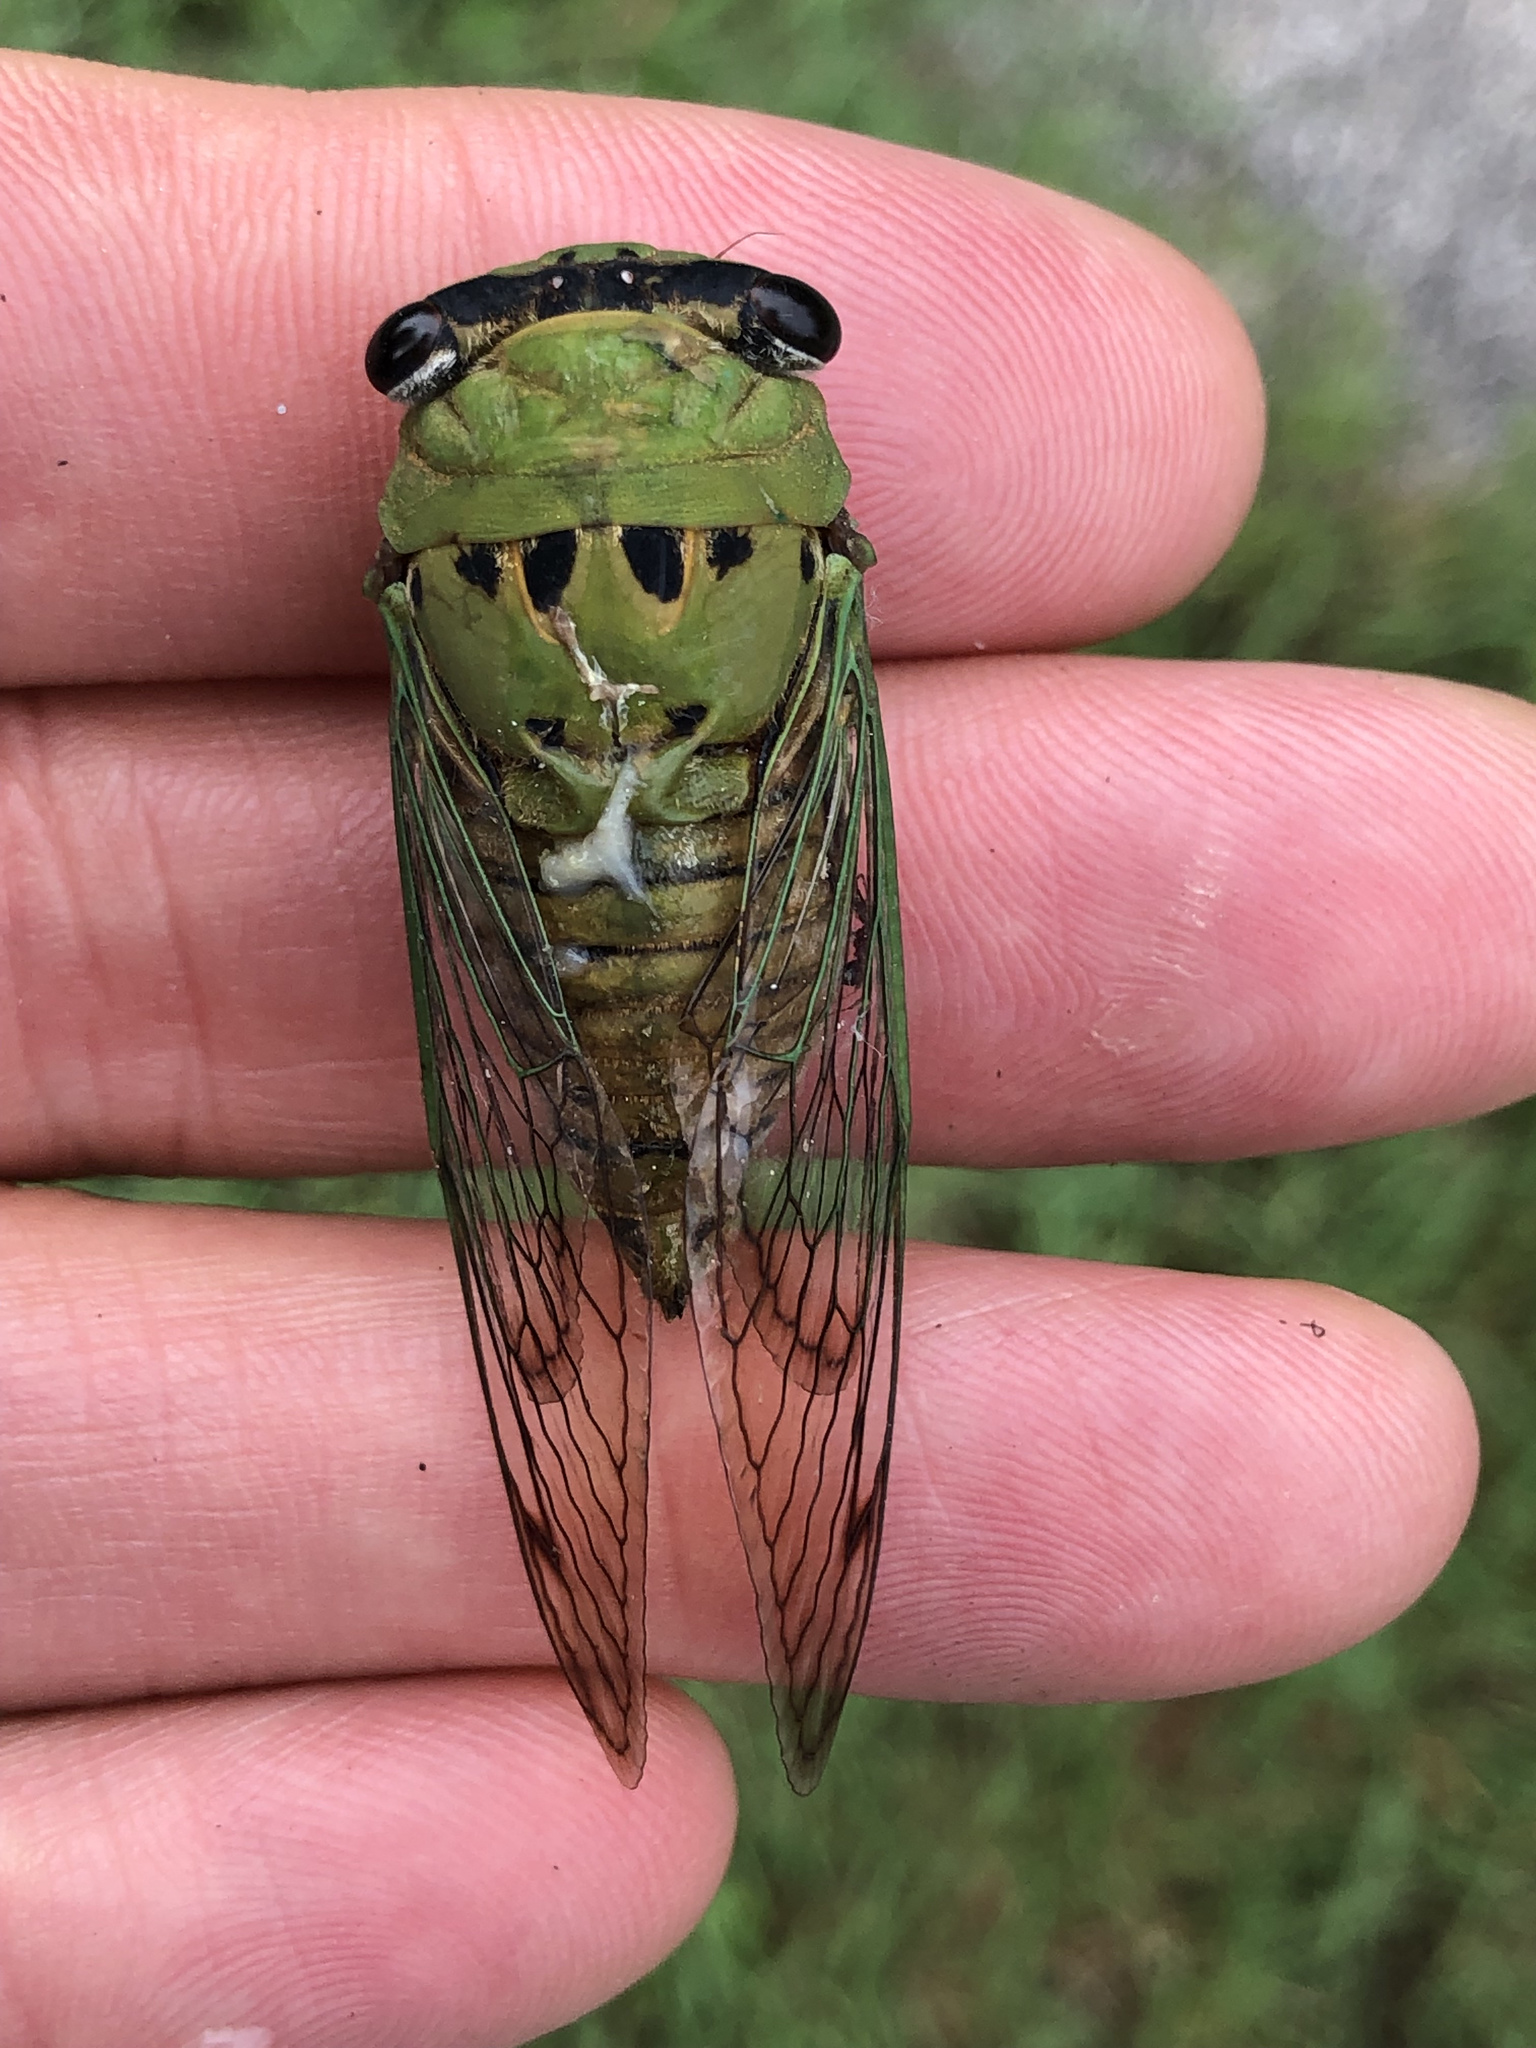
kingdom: Animalia
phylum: Arthropoda
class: Insecta
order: Hemiptera
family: Cicadidae
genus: Neotibicen
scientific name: Neotibicen superbus
